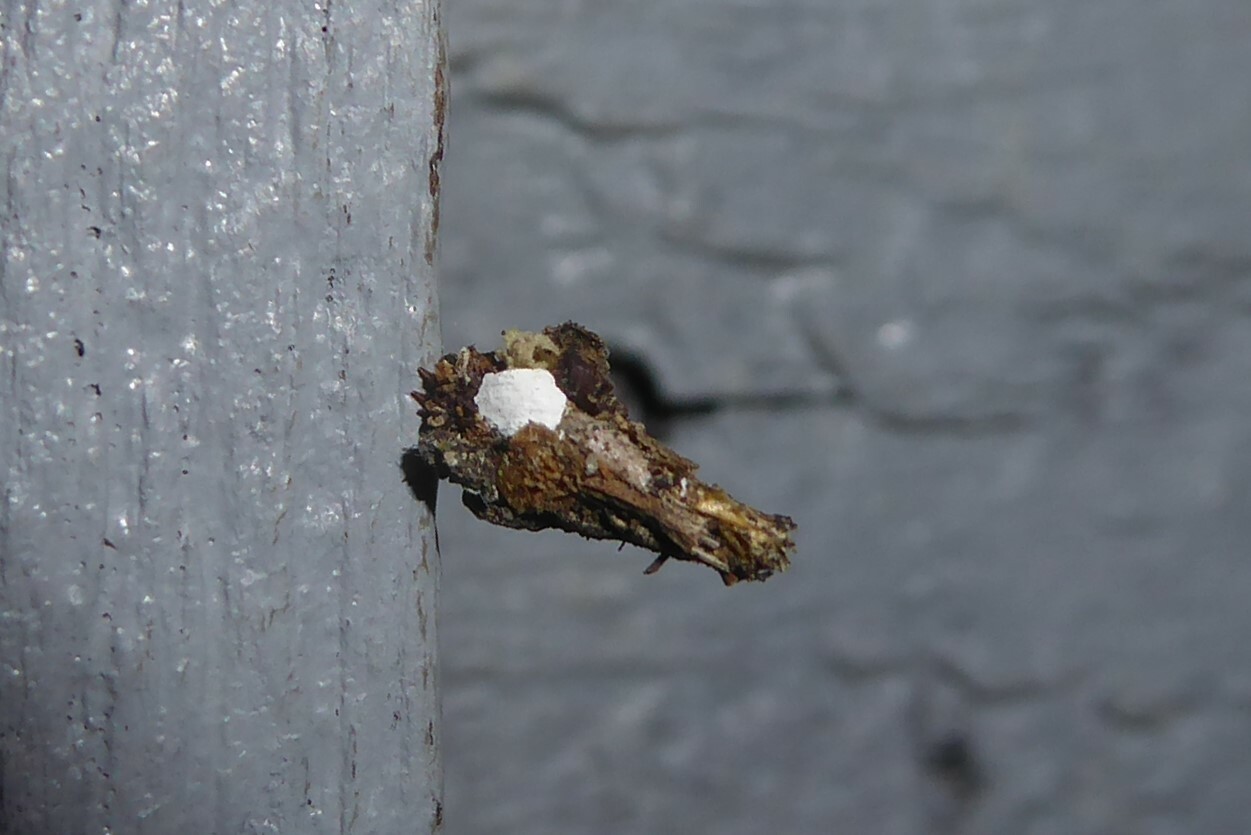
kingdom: Animalia
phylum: Arthropoda
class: Insecta
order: Lepidoptera
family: Psychidae
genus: Liothula
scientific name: Liothula omnivora
